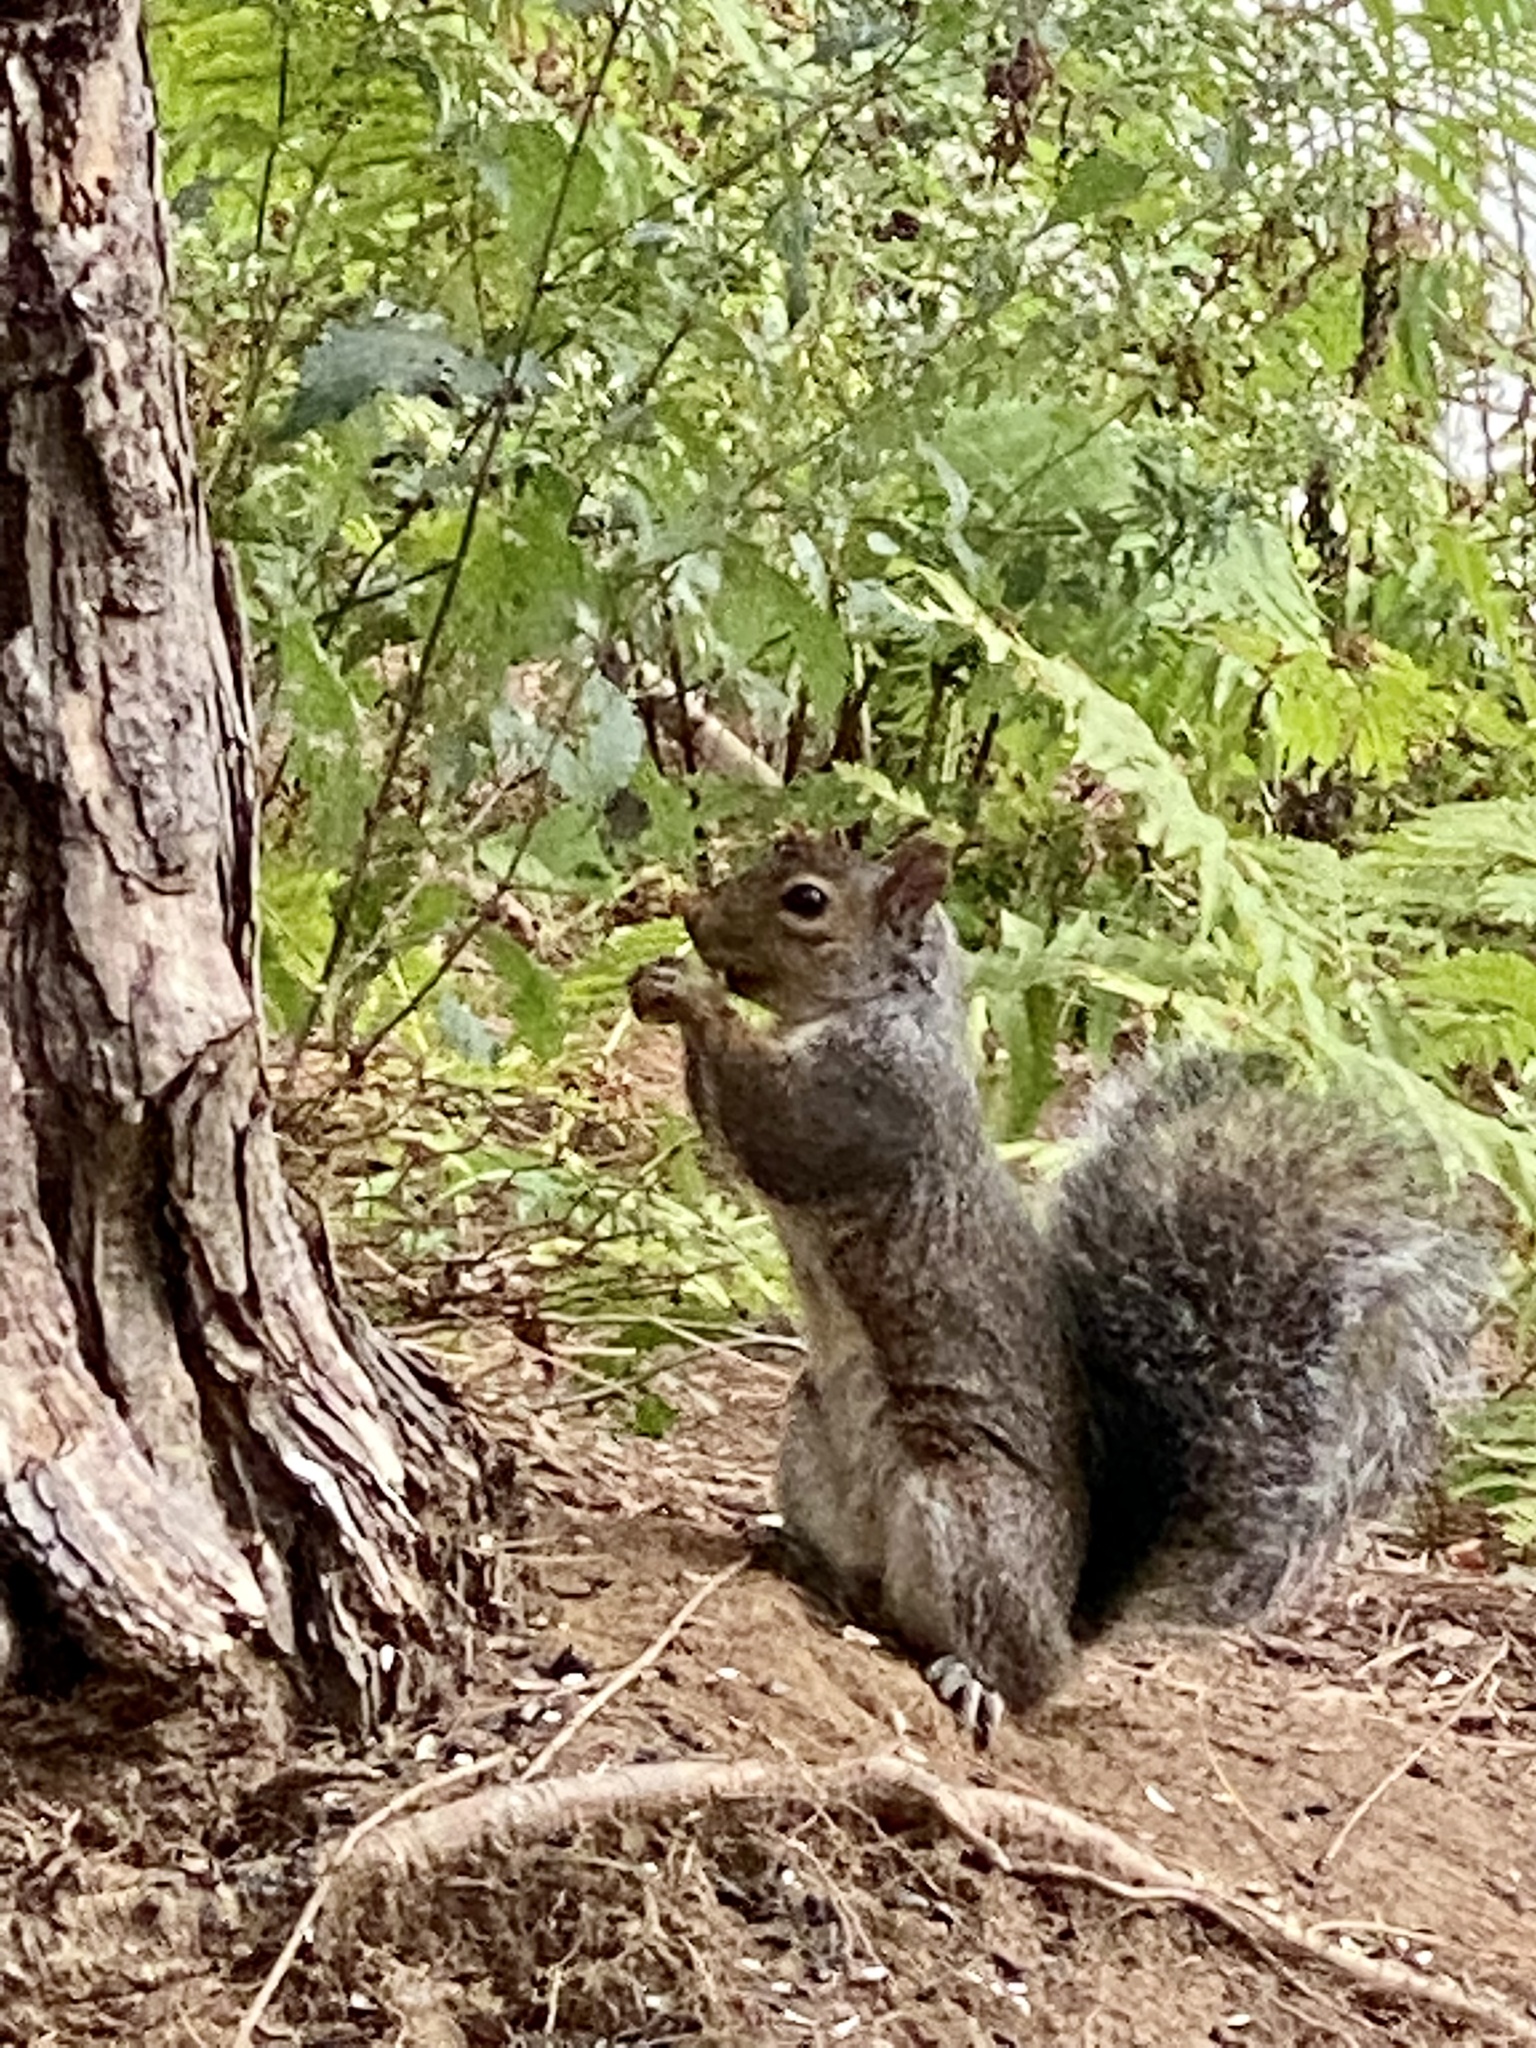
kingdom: Animalia
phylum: Chordata
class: Mammalia
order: Rodentia
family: Sciuridae
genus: Sciurus
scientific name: Sciurus carolinensis
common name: Eastern gray squirrel
